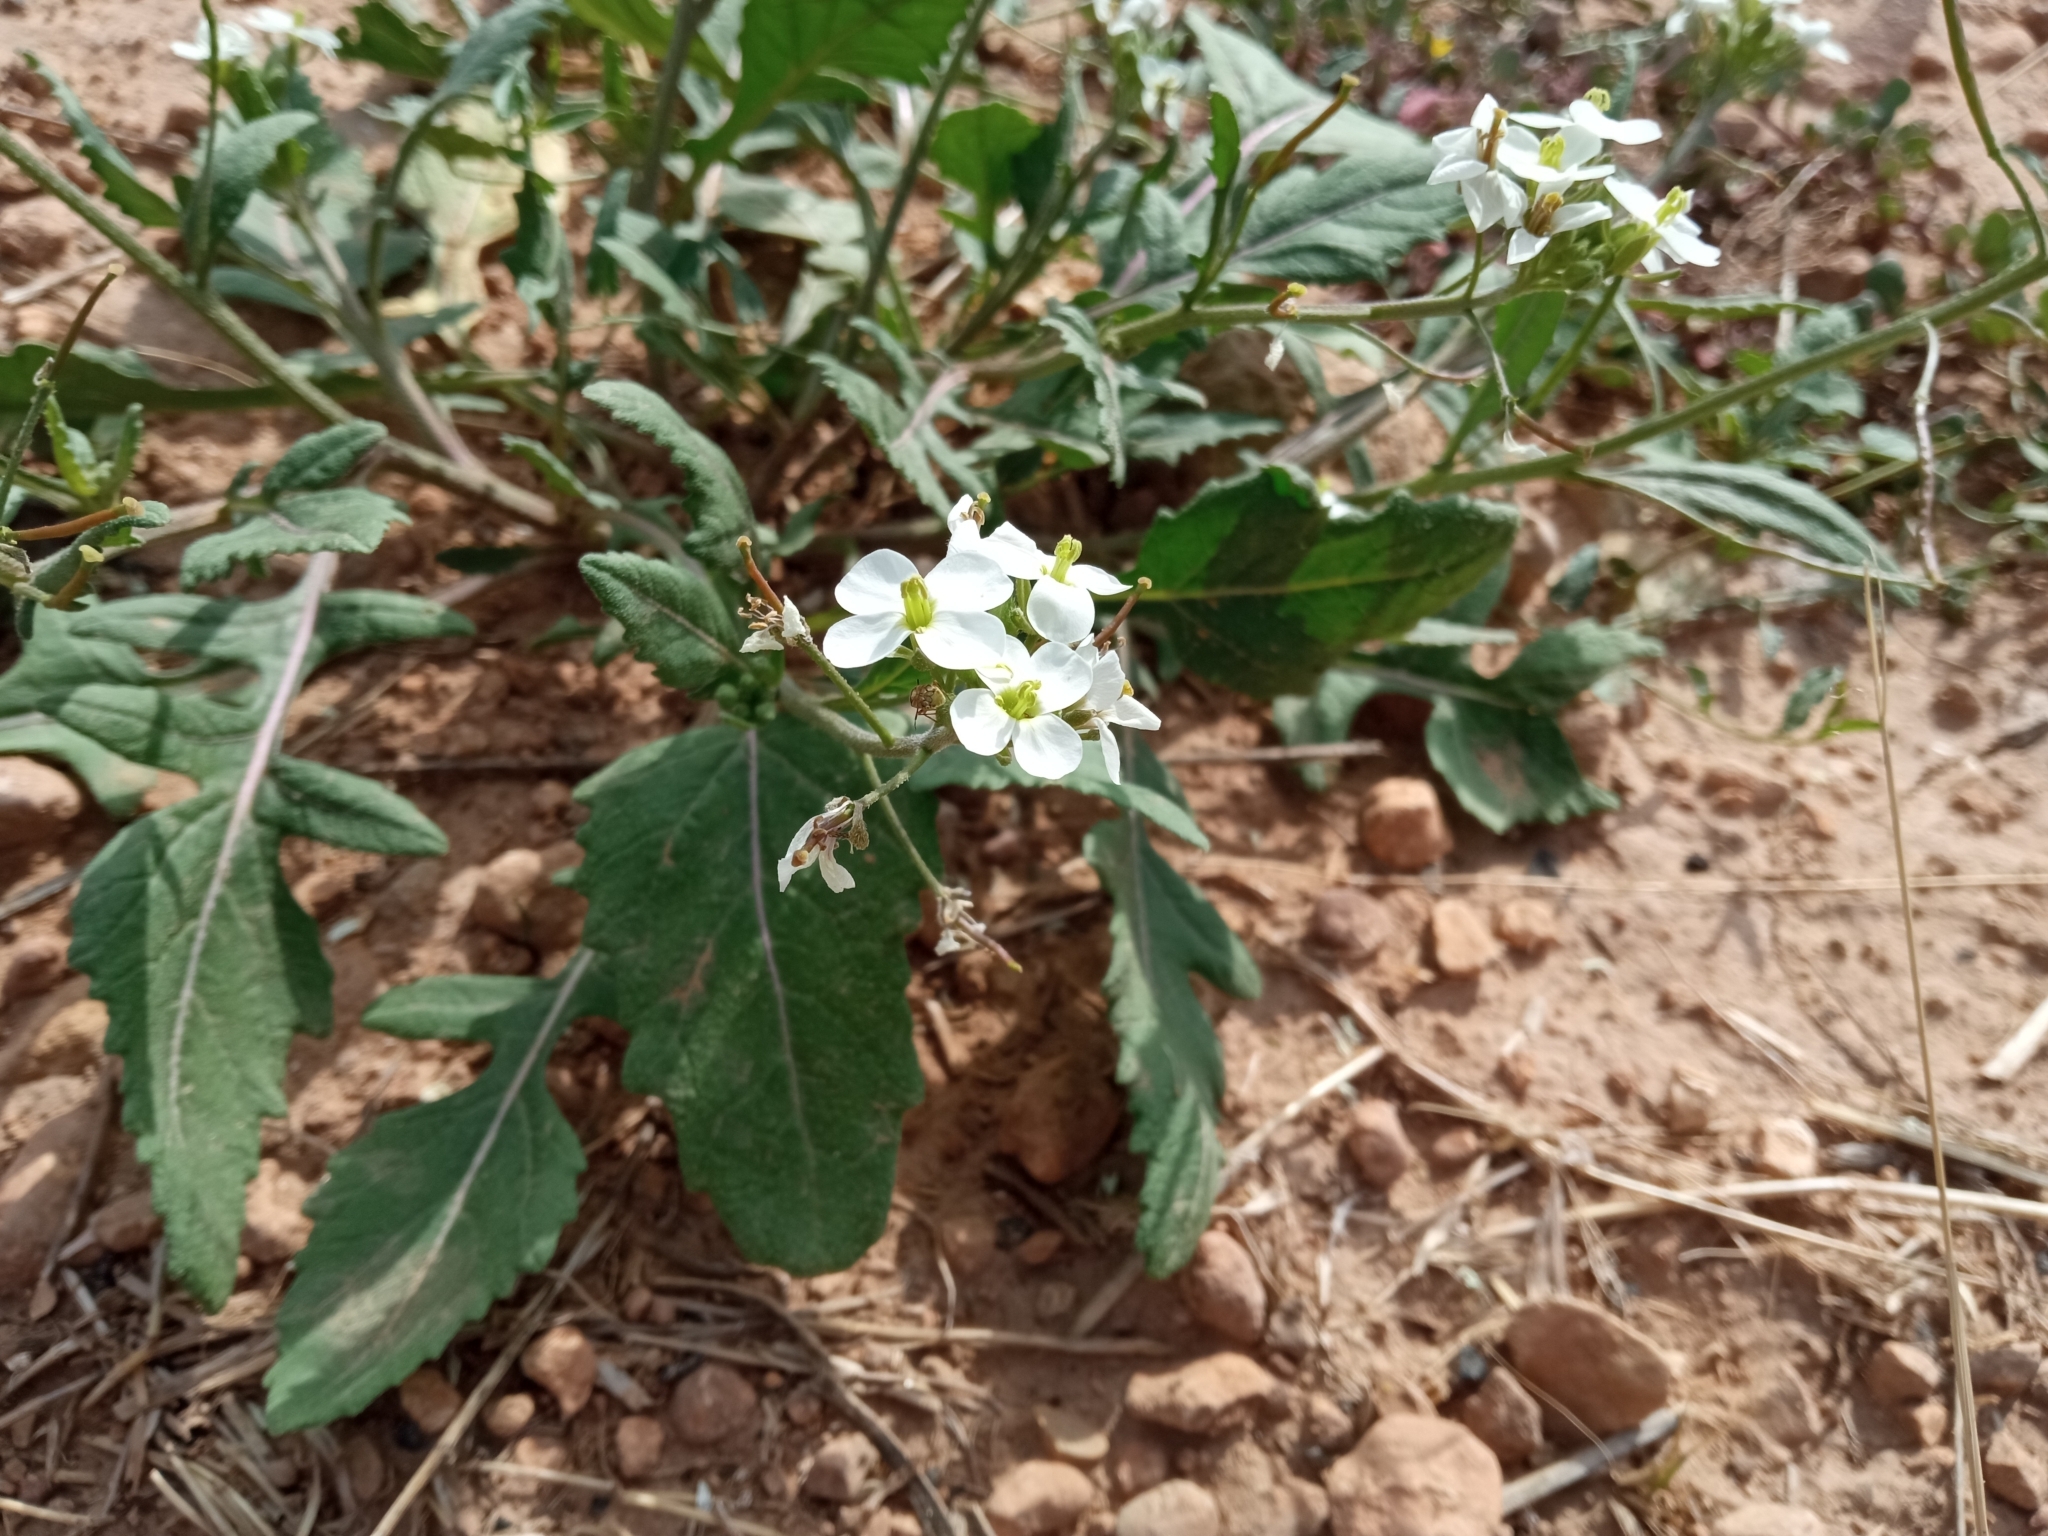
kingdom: Plantae
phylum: Tracheophyta
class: Magnoliopsida
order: Brassicales
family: Brassicaceae
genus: Diplotaxis
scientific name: Diplotaxis erucoides
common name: White rocket
